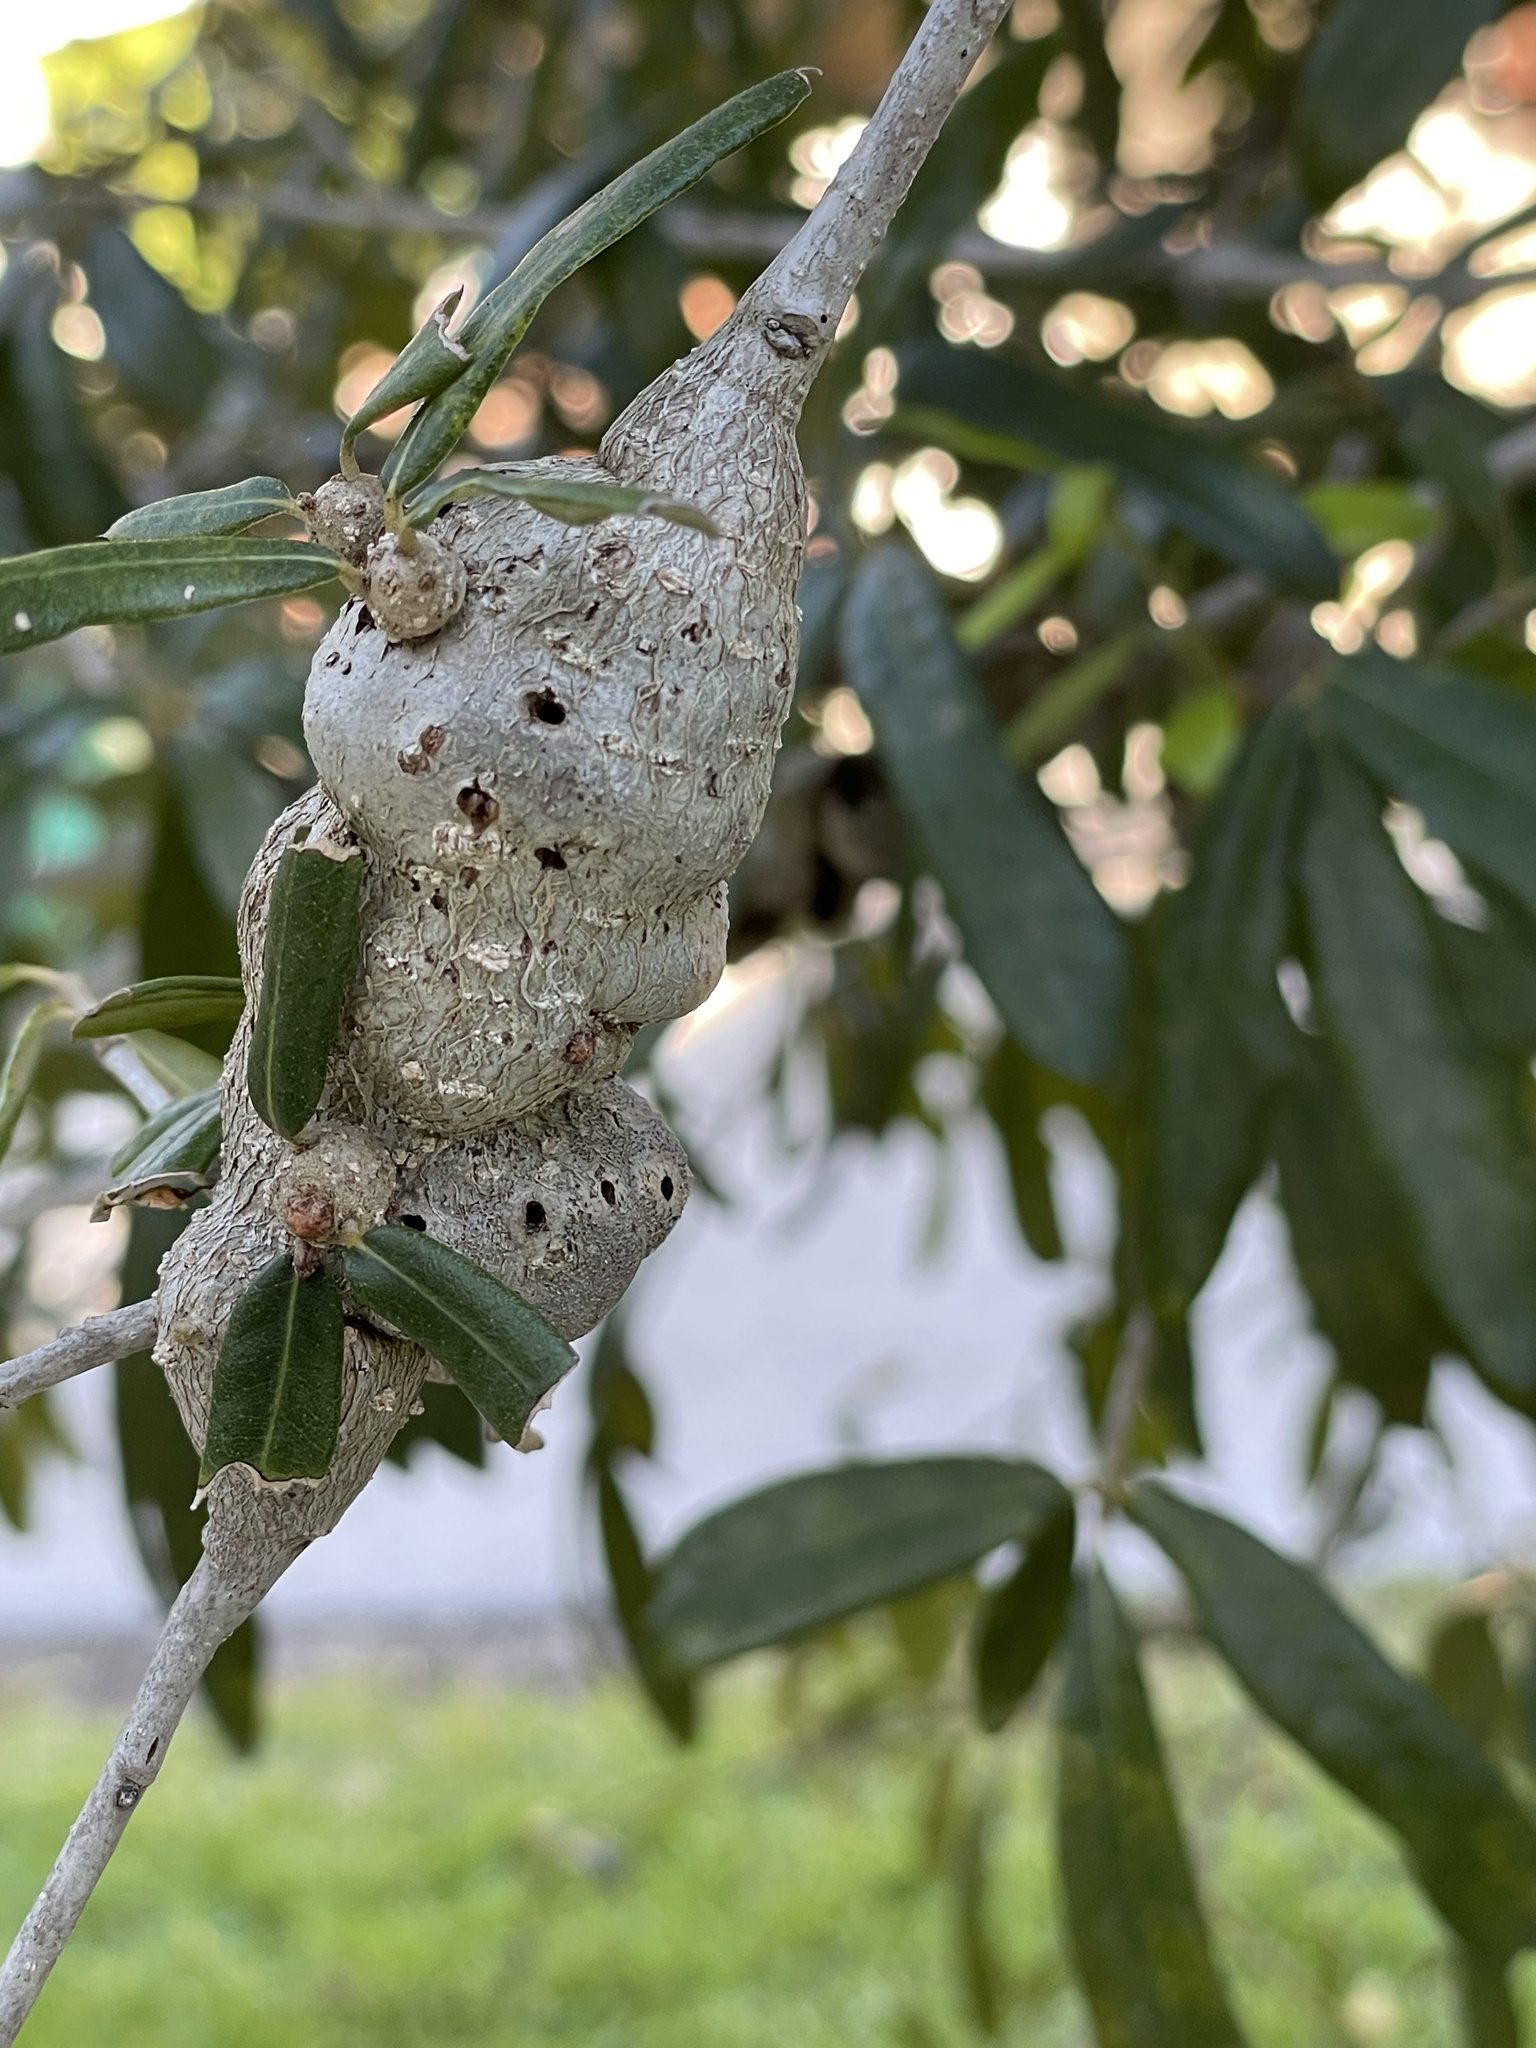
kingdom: Animalia
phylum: Arthropoda
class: Insecta
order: Hymenoptera
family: Cynipidae
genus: Callirhytis
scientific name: Callirhytis
